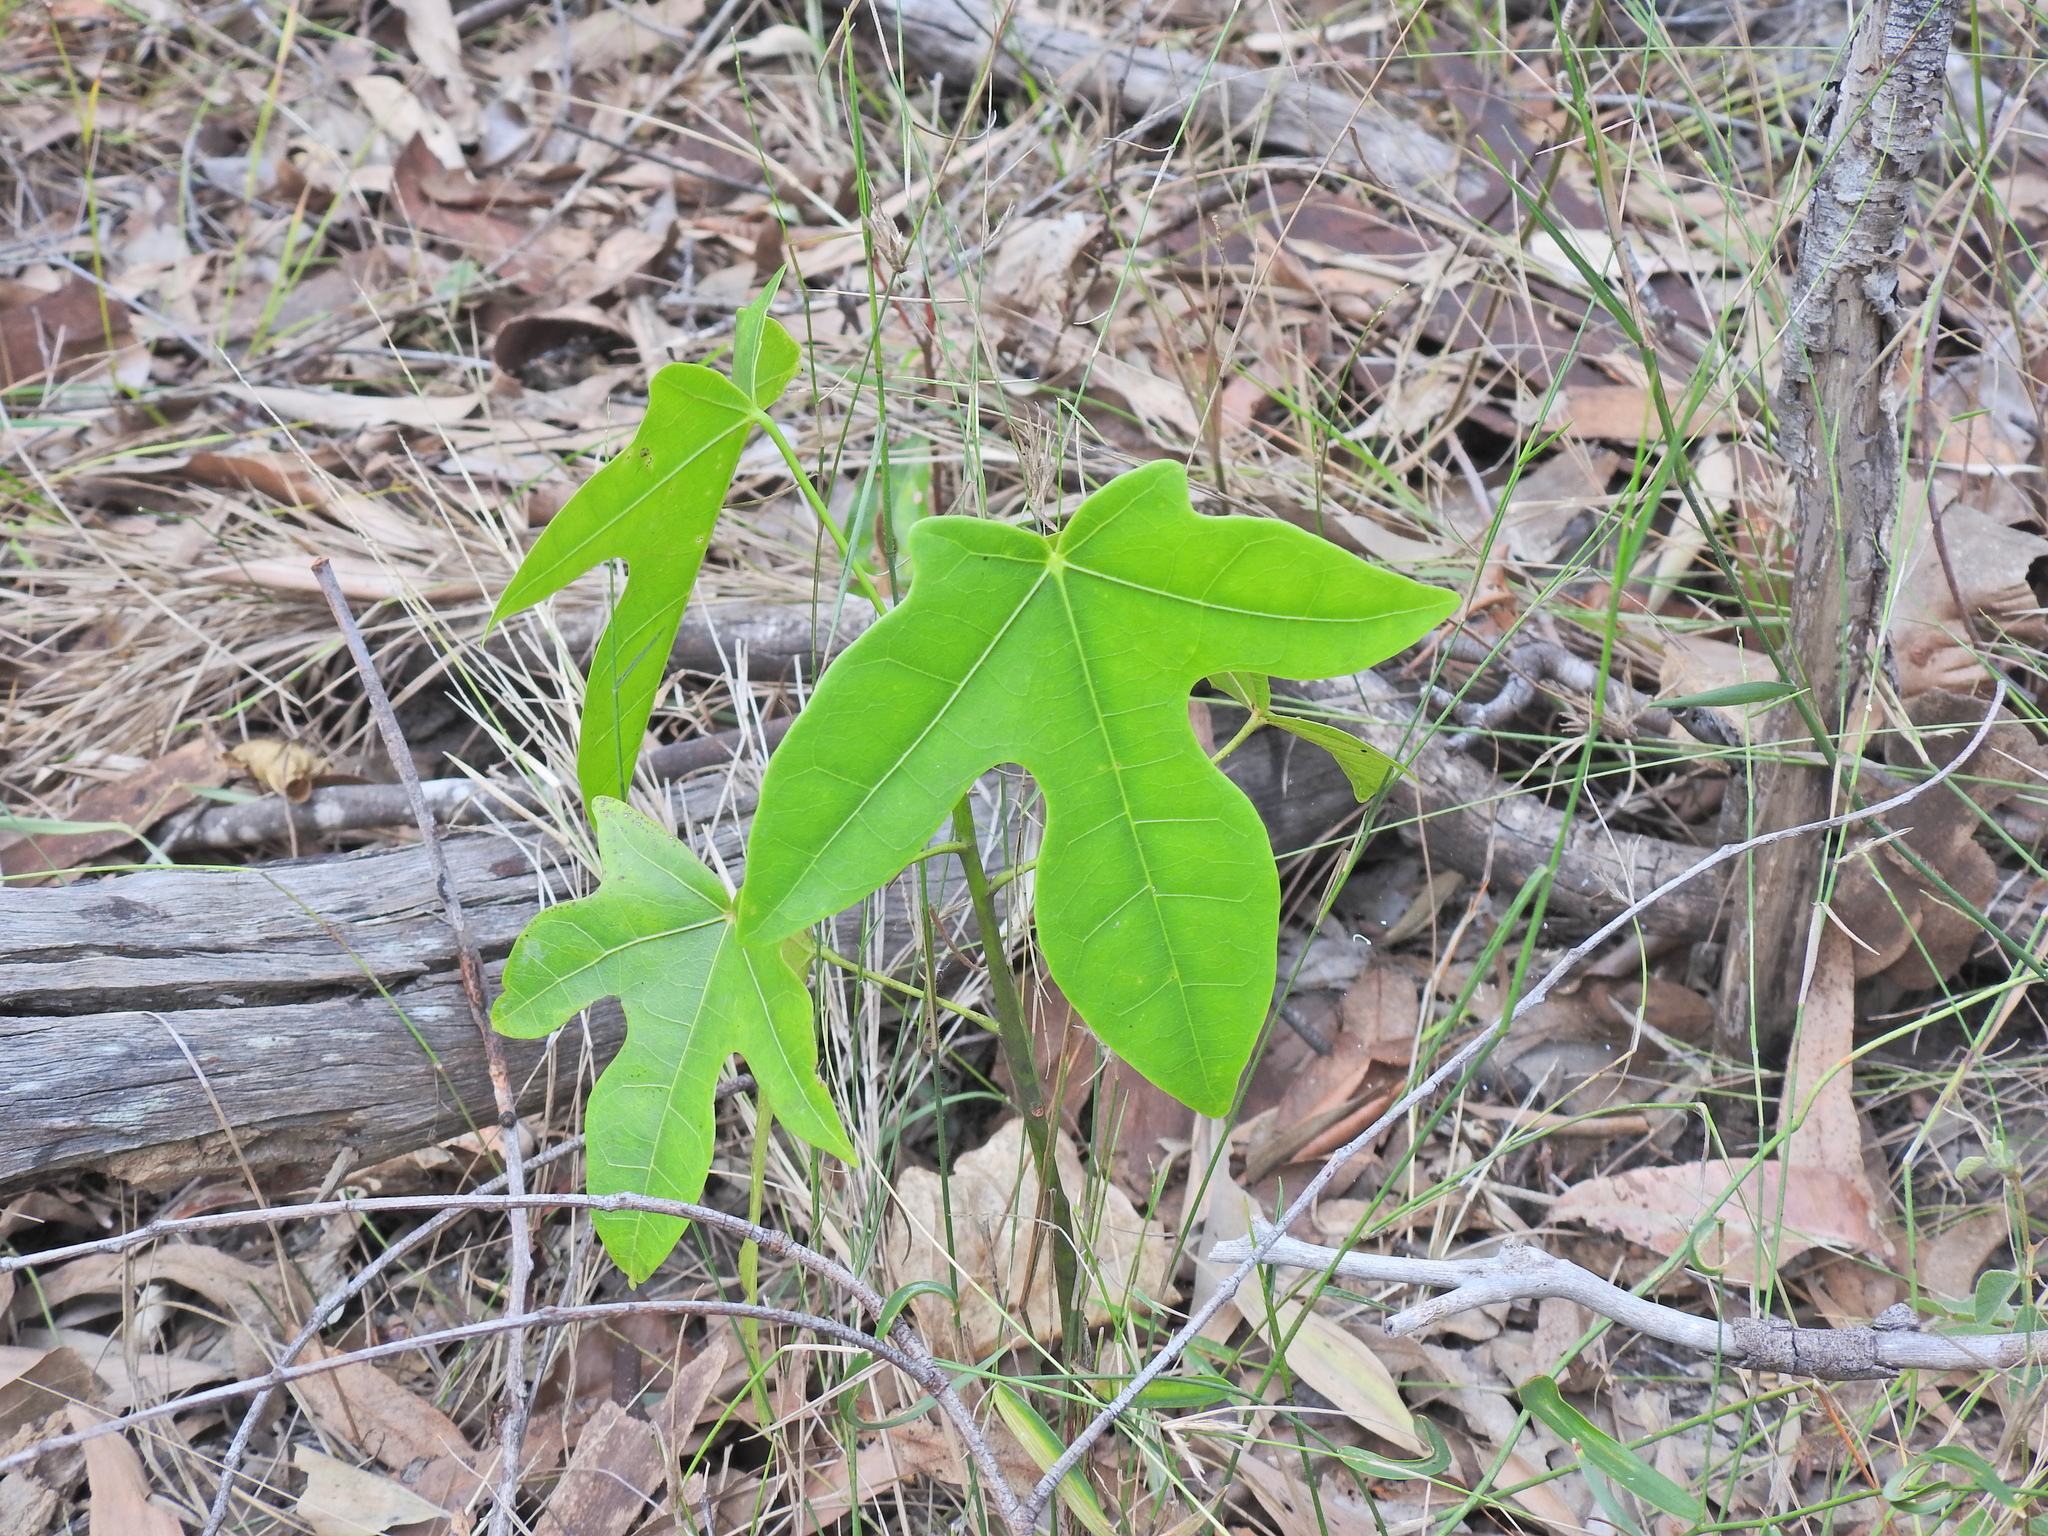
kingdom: Plantae
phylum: Tracheophyta
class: Magnoliopsida
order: Malvales
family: Malvaceae
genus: Brachychiton
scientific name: Brachychiton acerifolius
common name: Illawarra flame tree
